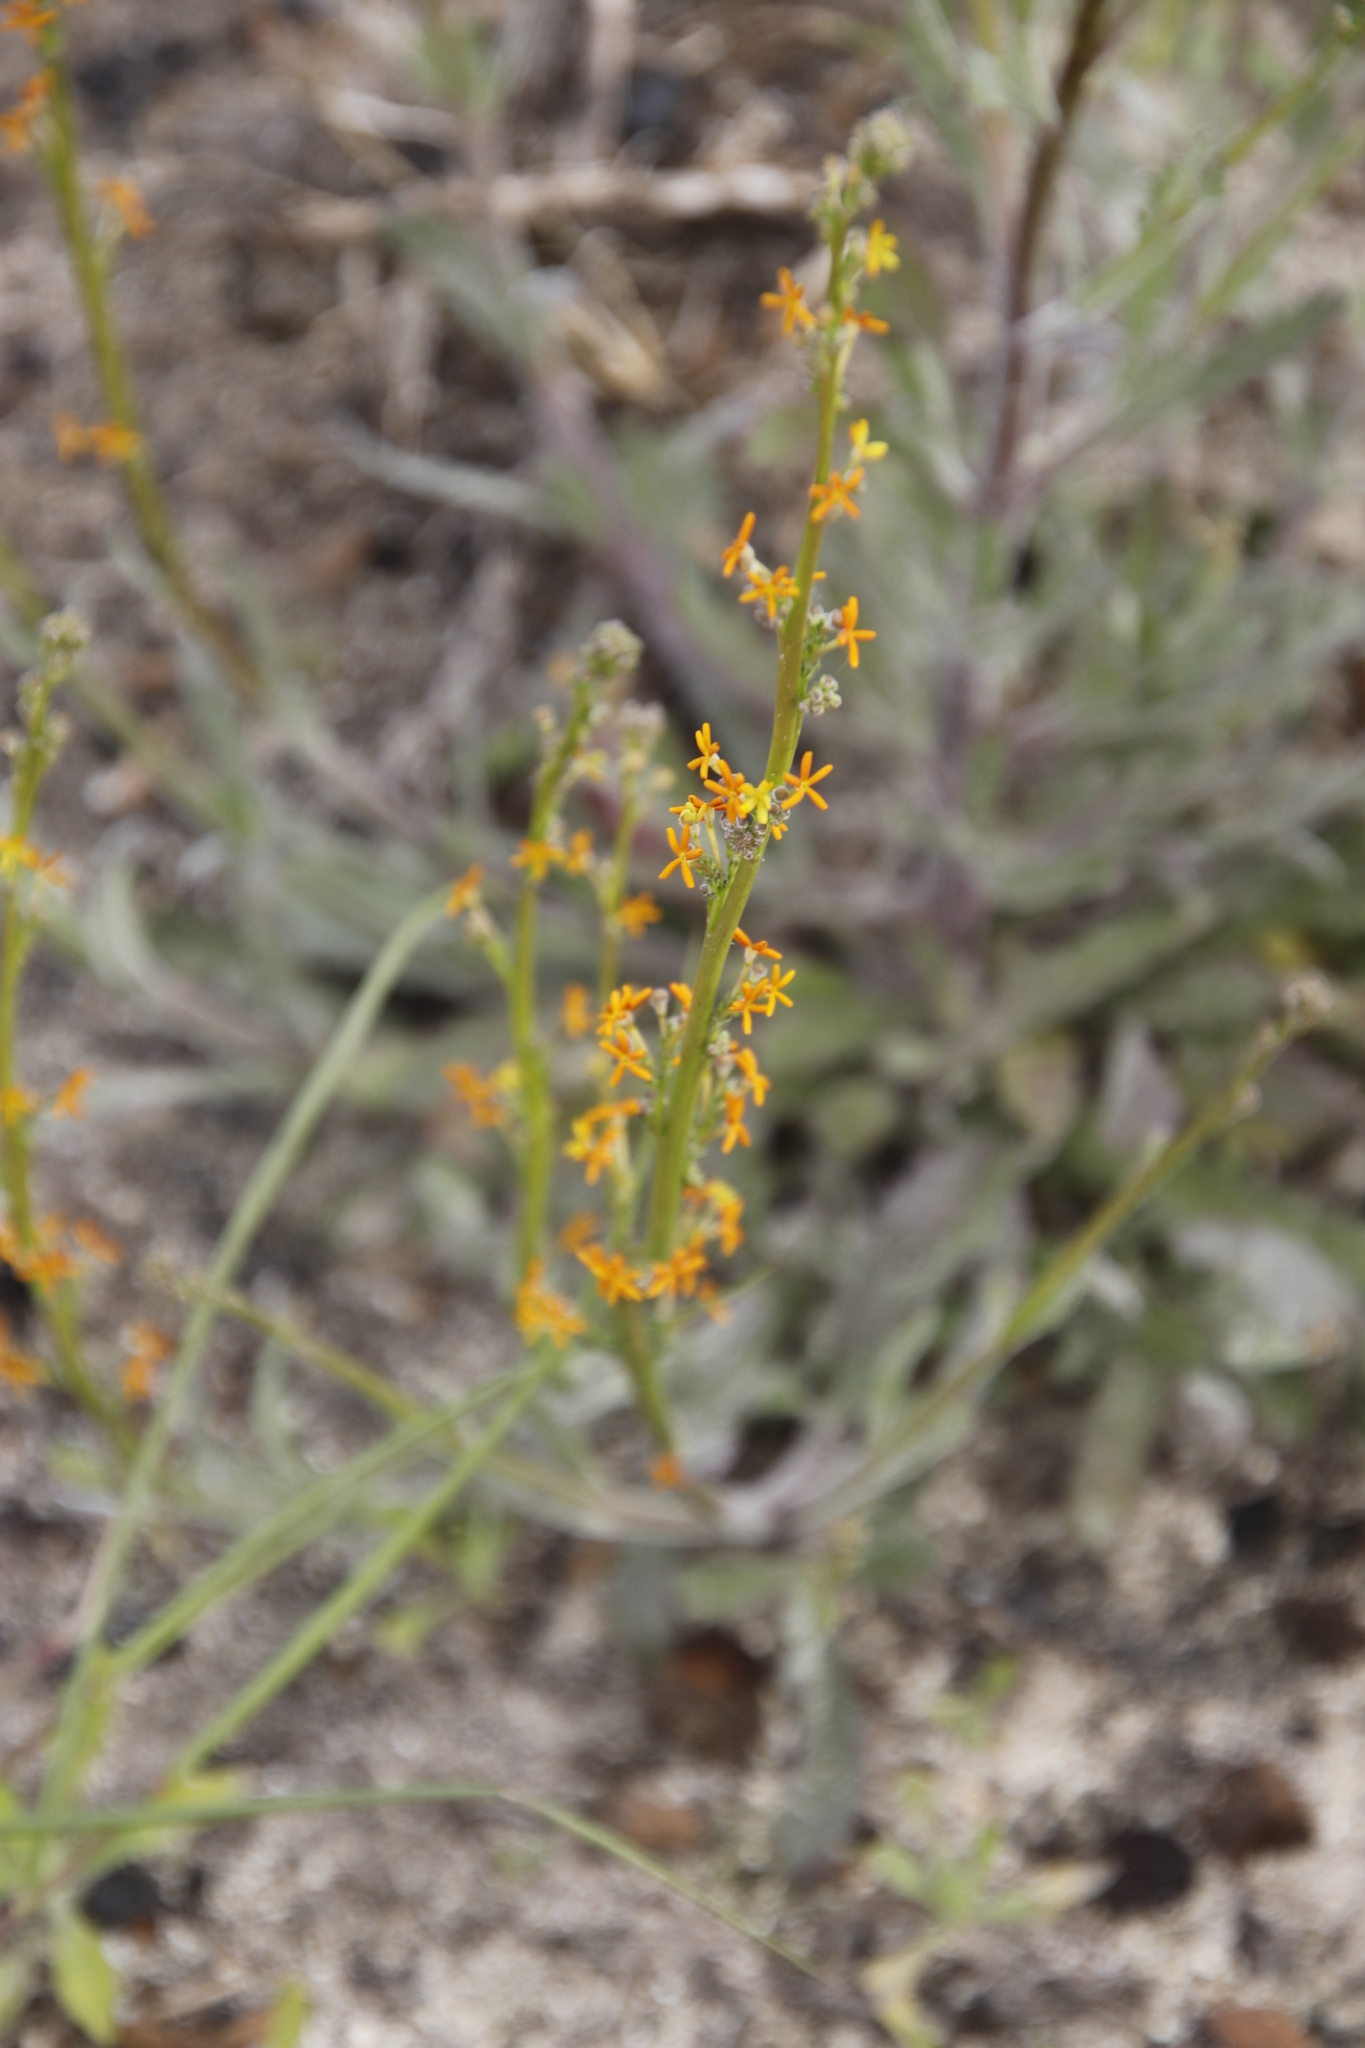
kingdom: Plantae
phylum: Tracheophyta
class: Magnoliopsida
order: Lamiales
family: Scrophulariaceae
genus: Manulea
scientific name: Manulea rubra
